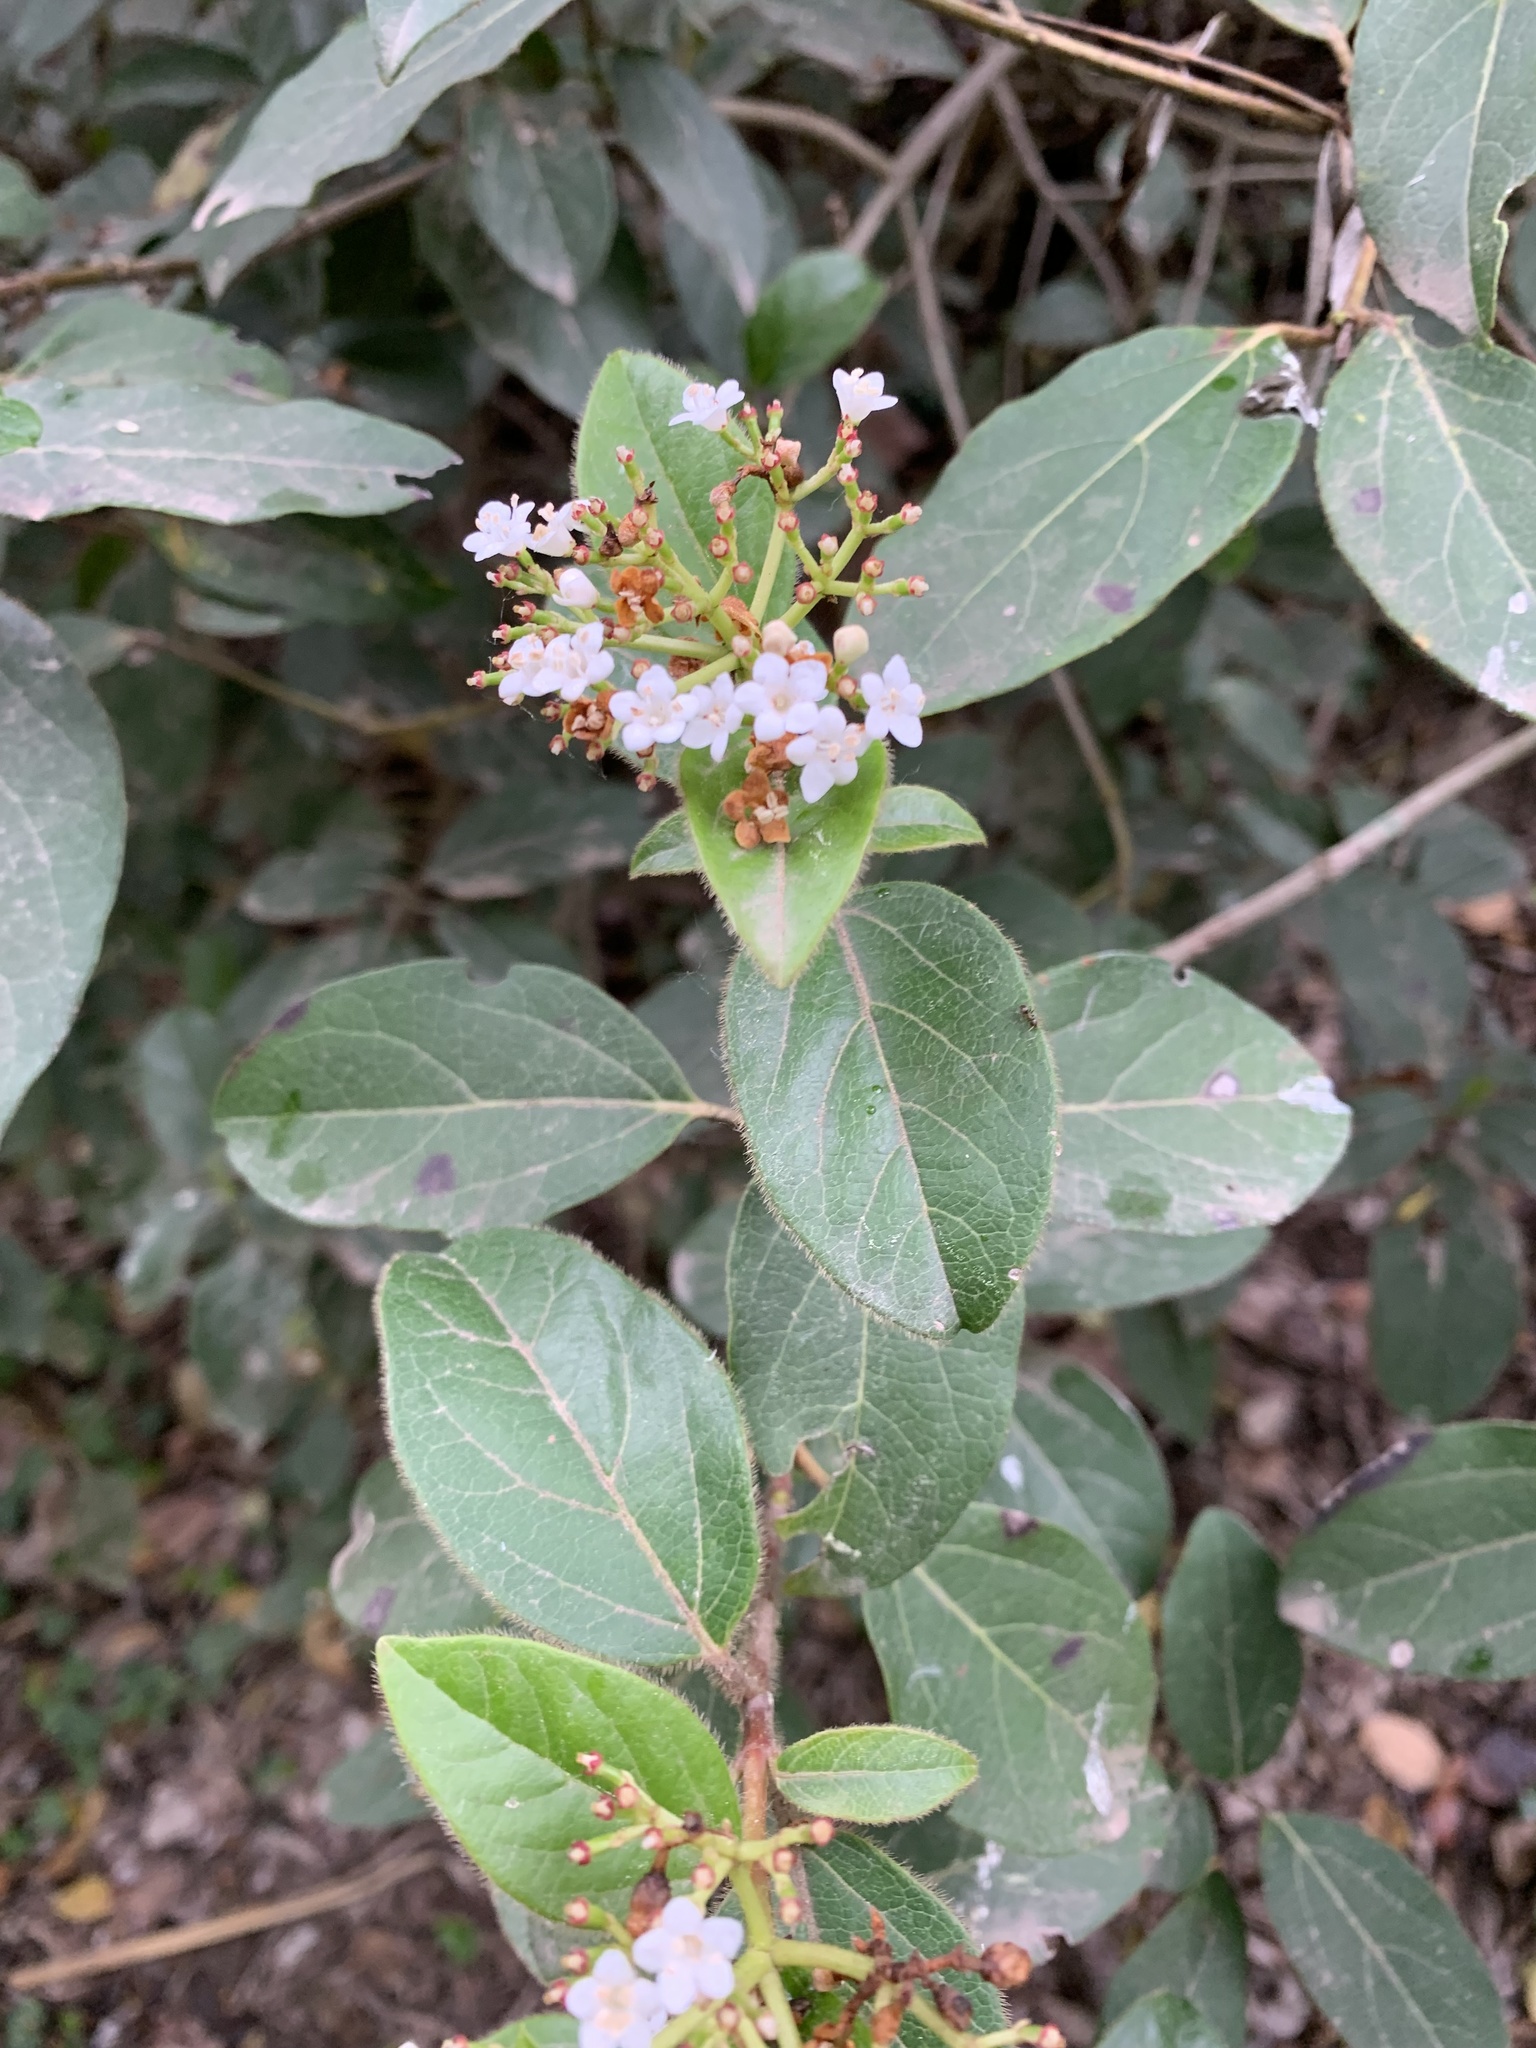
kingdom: Plantae
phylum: Tracheophyta
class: Magnoliopsida
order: Dipsacales
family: Viburnaceae
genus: Viburnum
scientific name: Viburnum tinus
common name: Laurustinus
